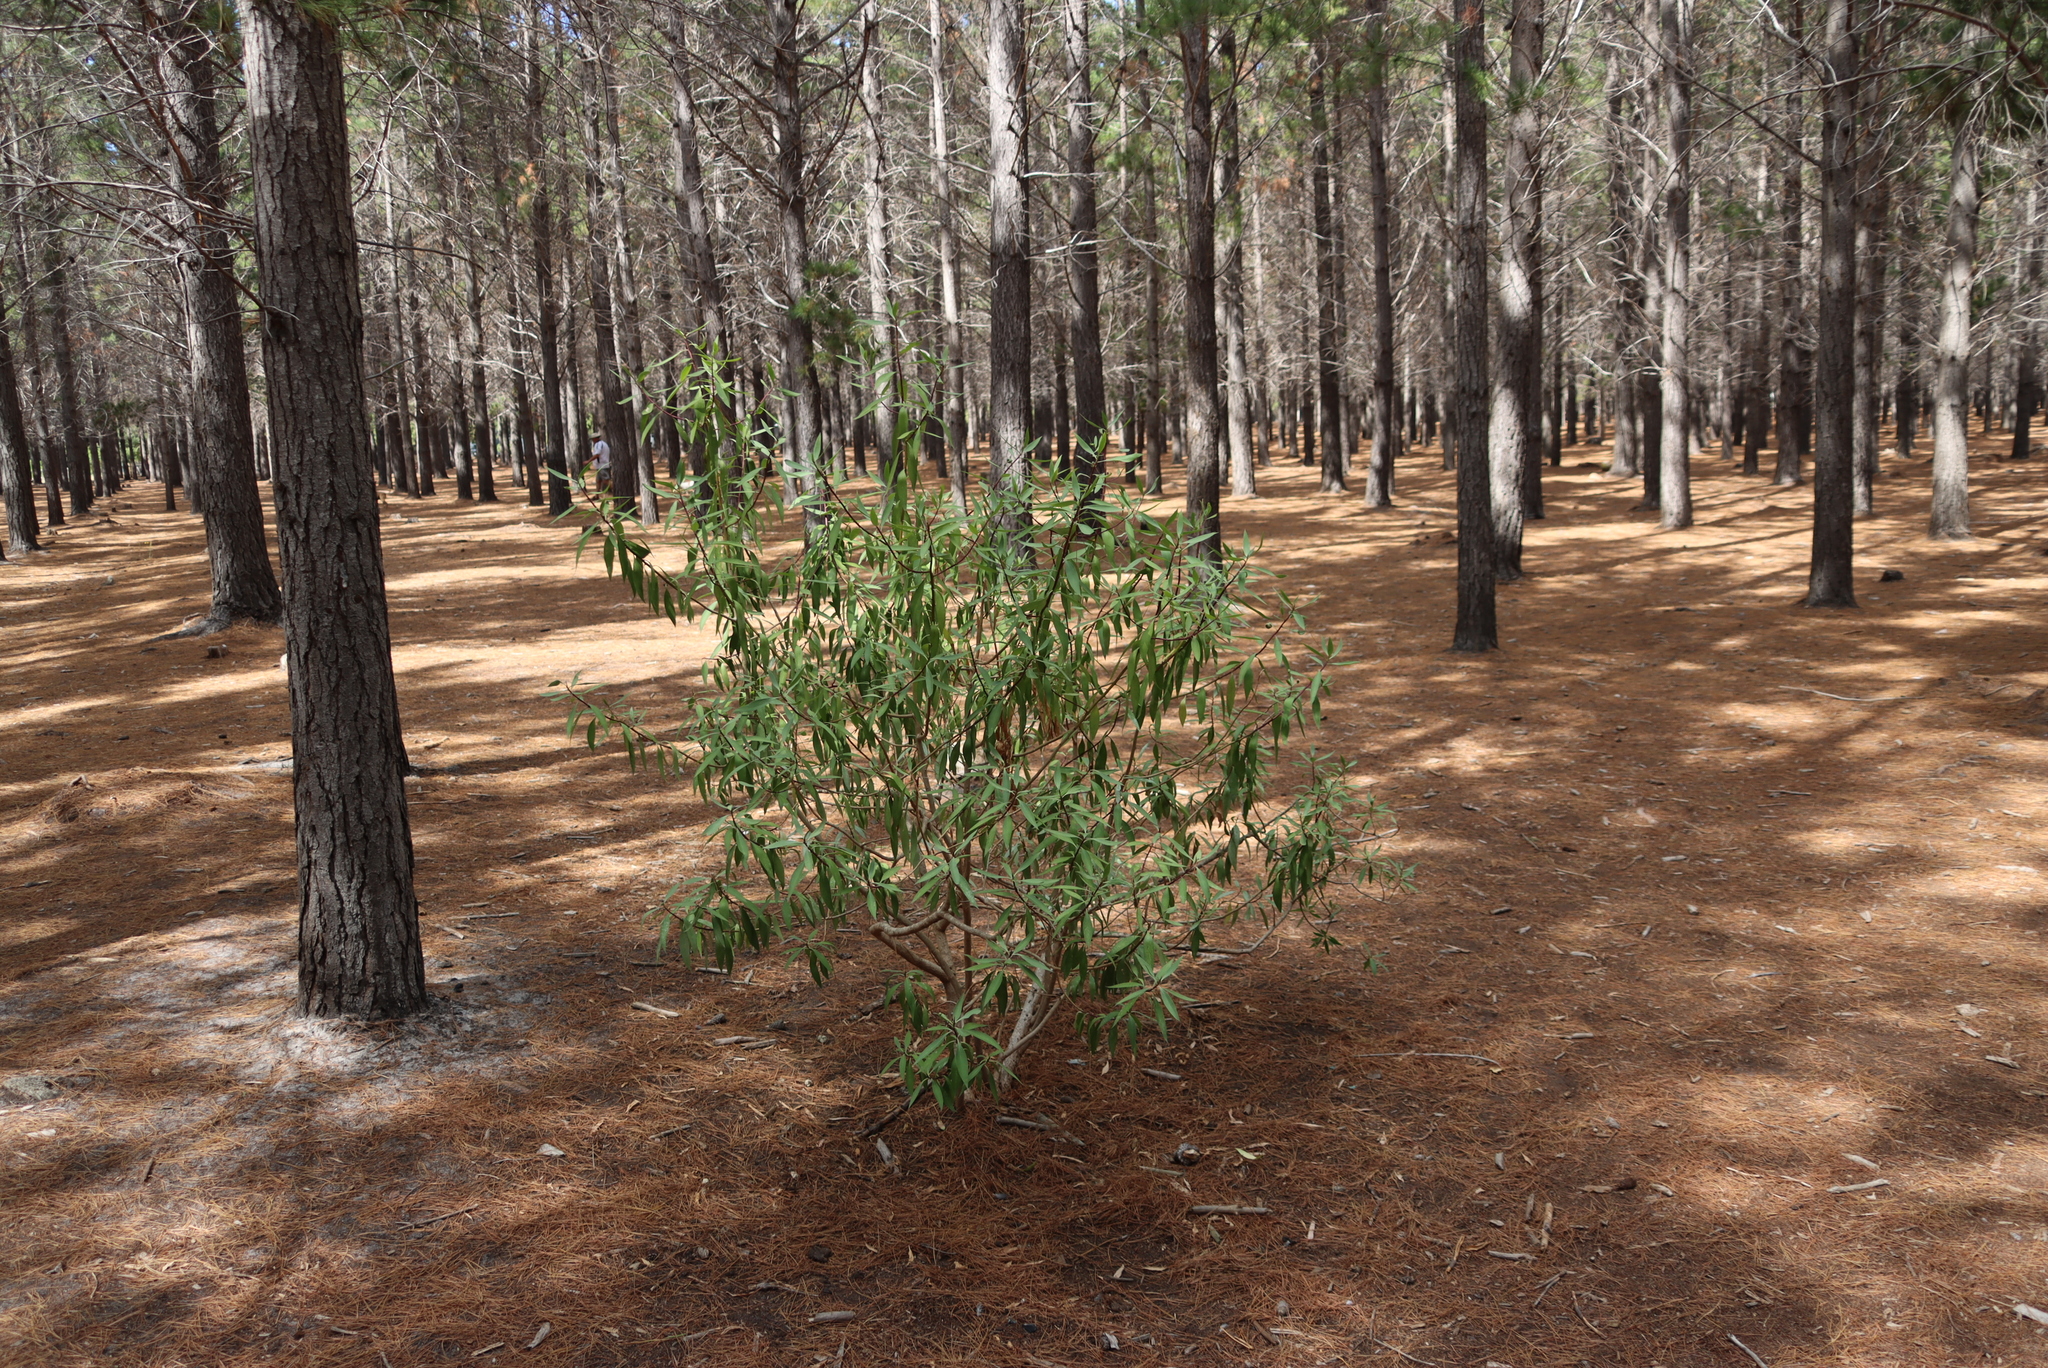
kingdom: Plantae
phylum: Tracheophyta
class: Magnoliopsida
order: Lamiales
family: Scrophulariaceae
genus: Myoporum
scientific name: Myoporum montanum
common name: Waterbush
